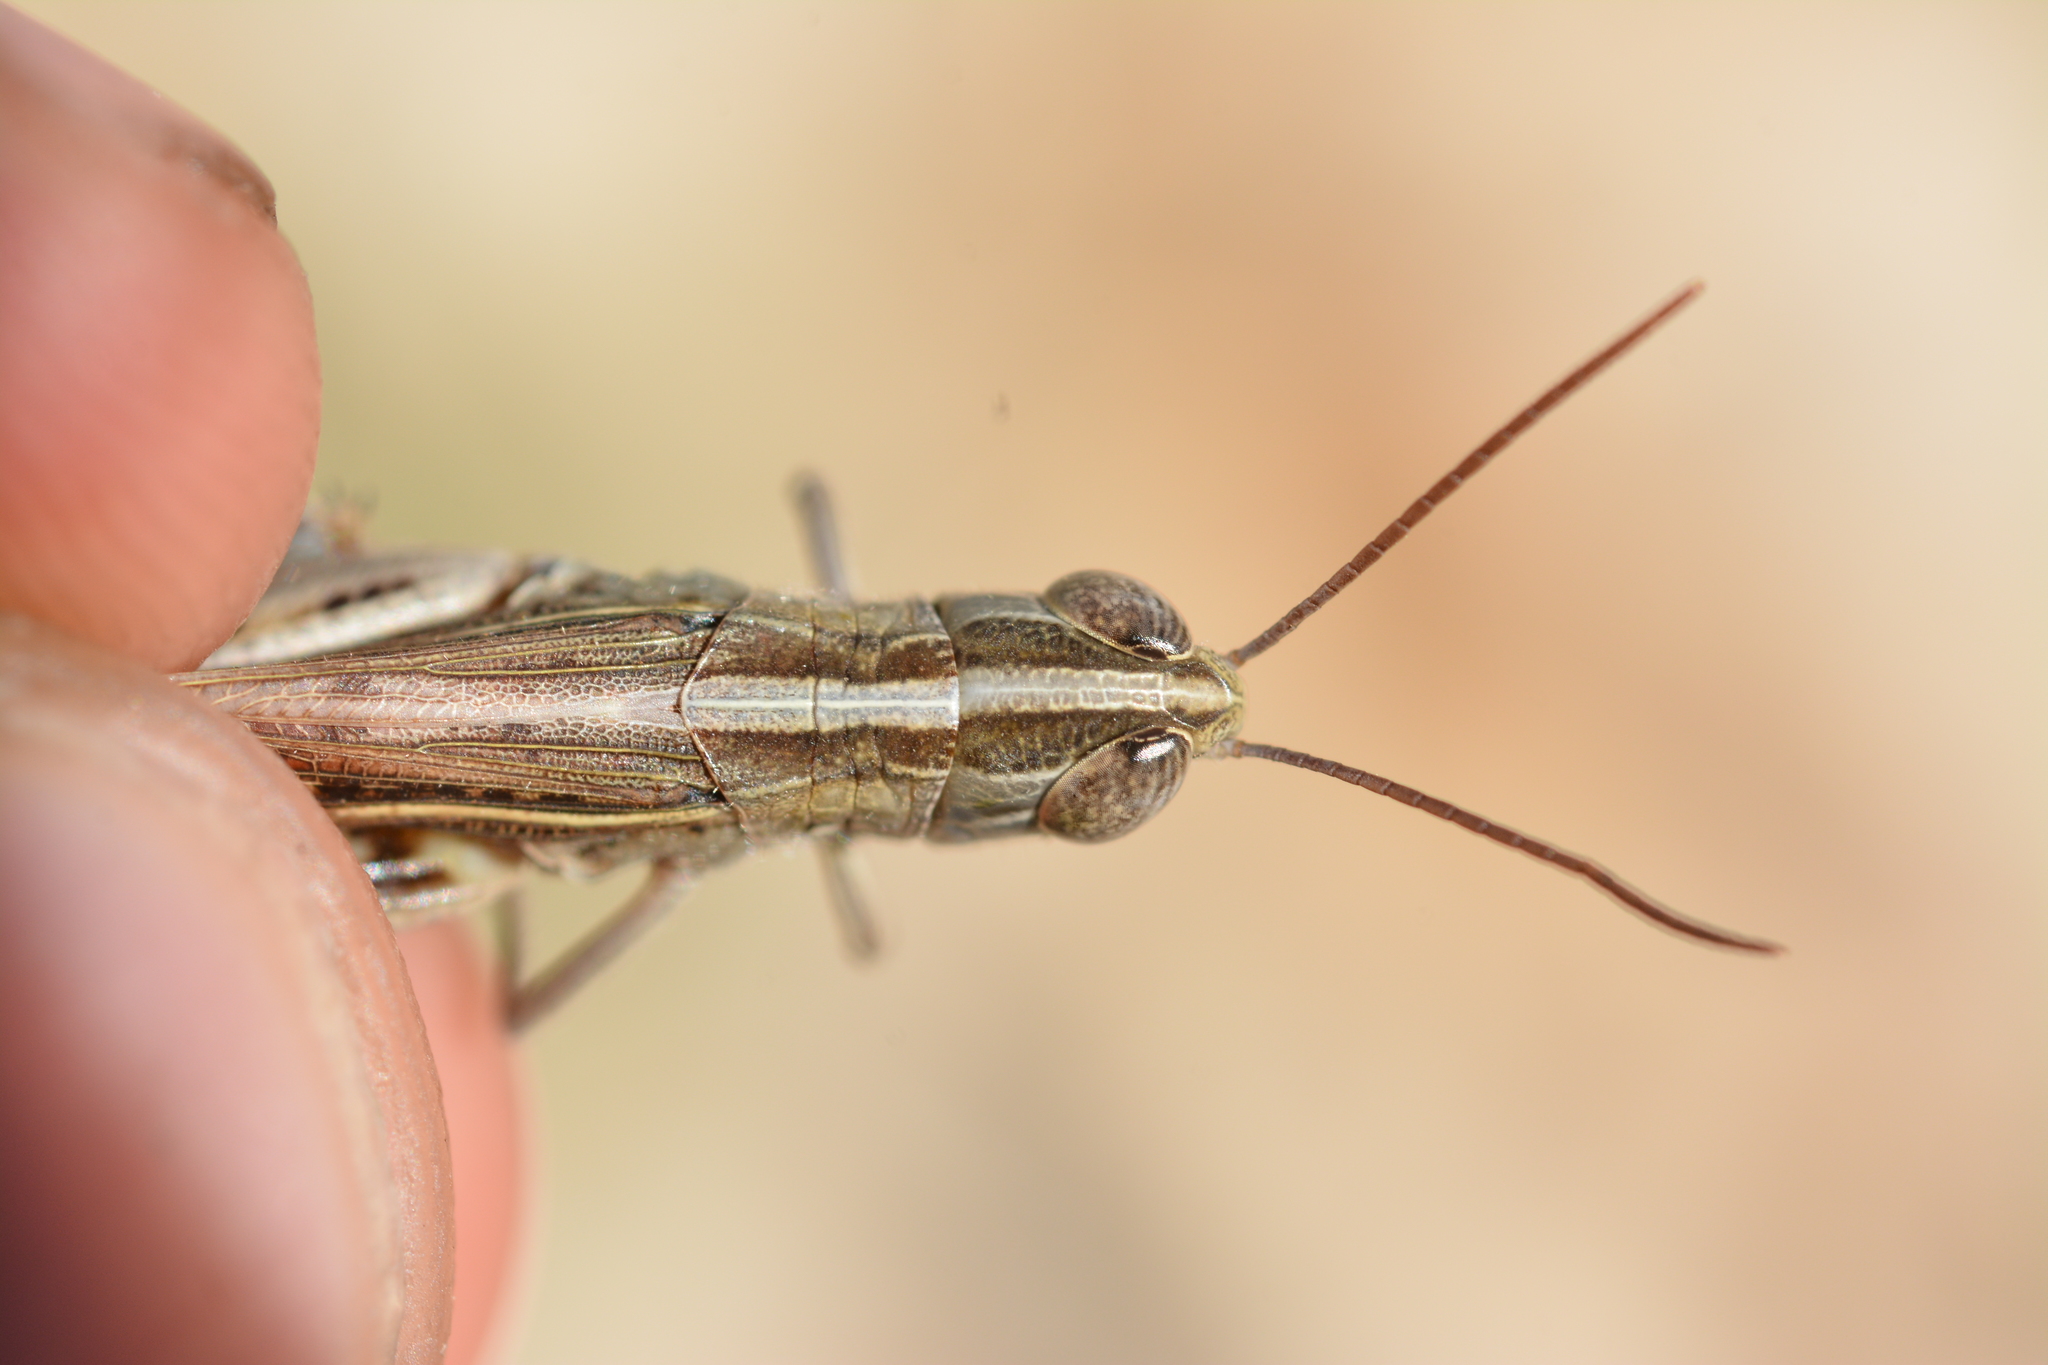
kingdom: Animalia
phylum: Arthropoda
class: Insecta
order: Orthoptera
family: Acrididae
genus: Ramburiella
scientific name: Ramburiella hispanica
